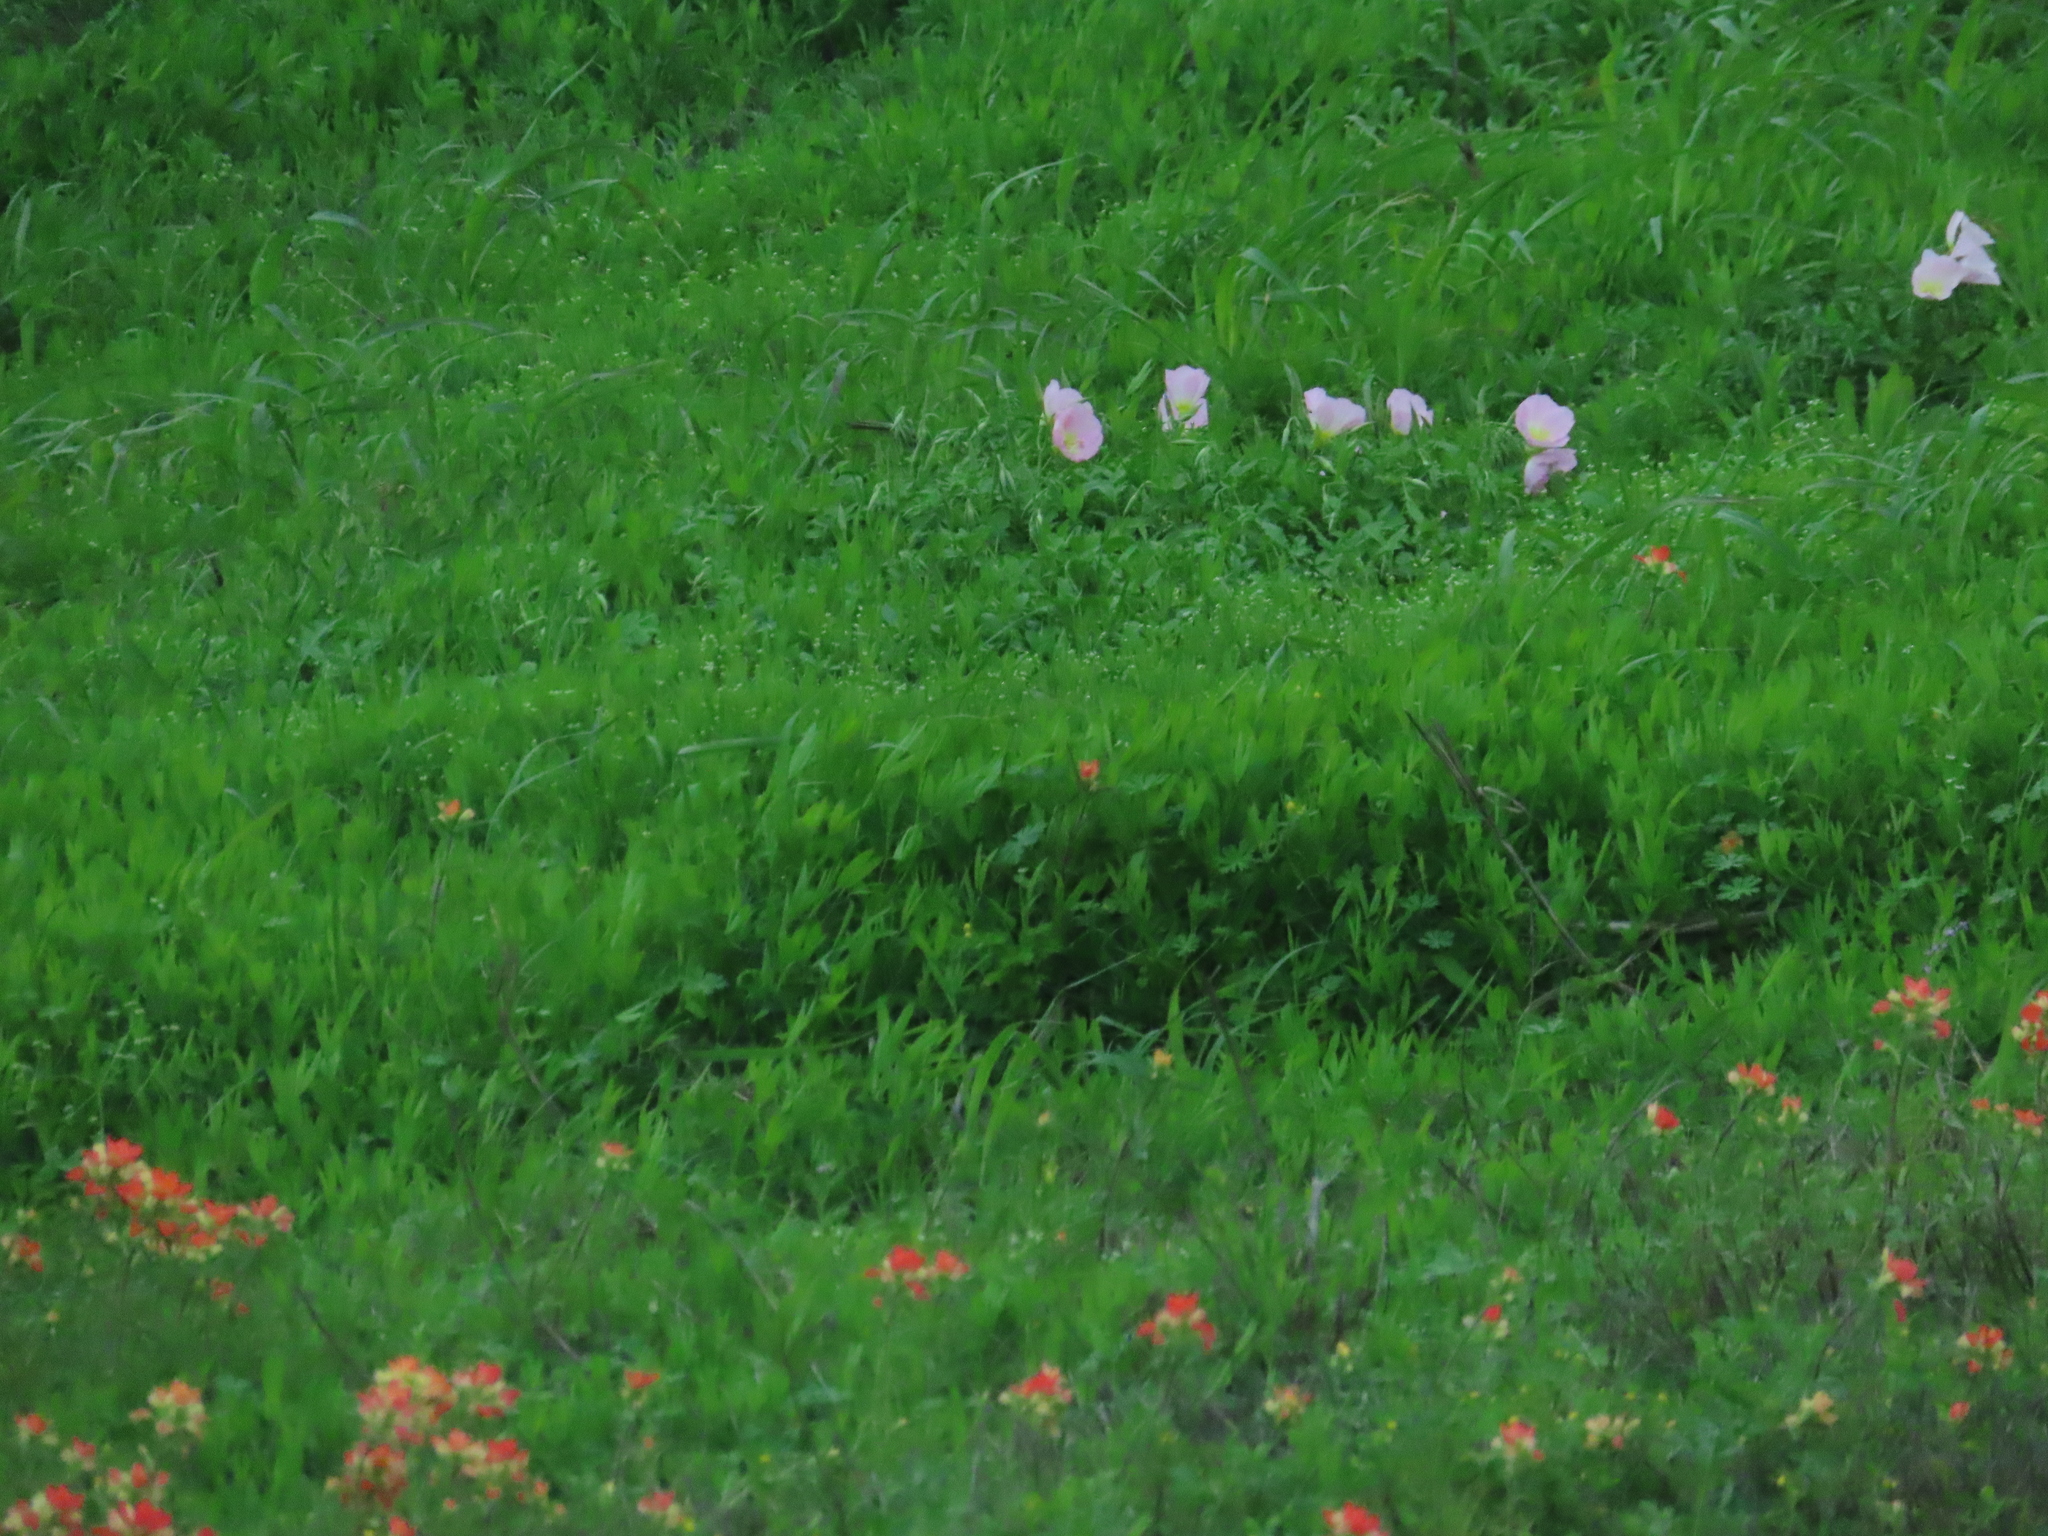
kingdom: Plantae
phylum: Tracheophyta
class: Magnoliopsida
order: Myrtales
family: Onagraceae
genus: Oenothera
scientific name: Oenothera speciosa
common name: White evening-primrose
